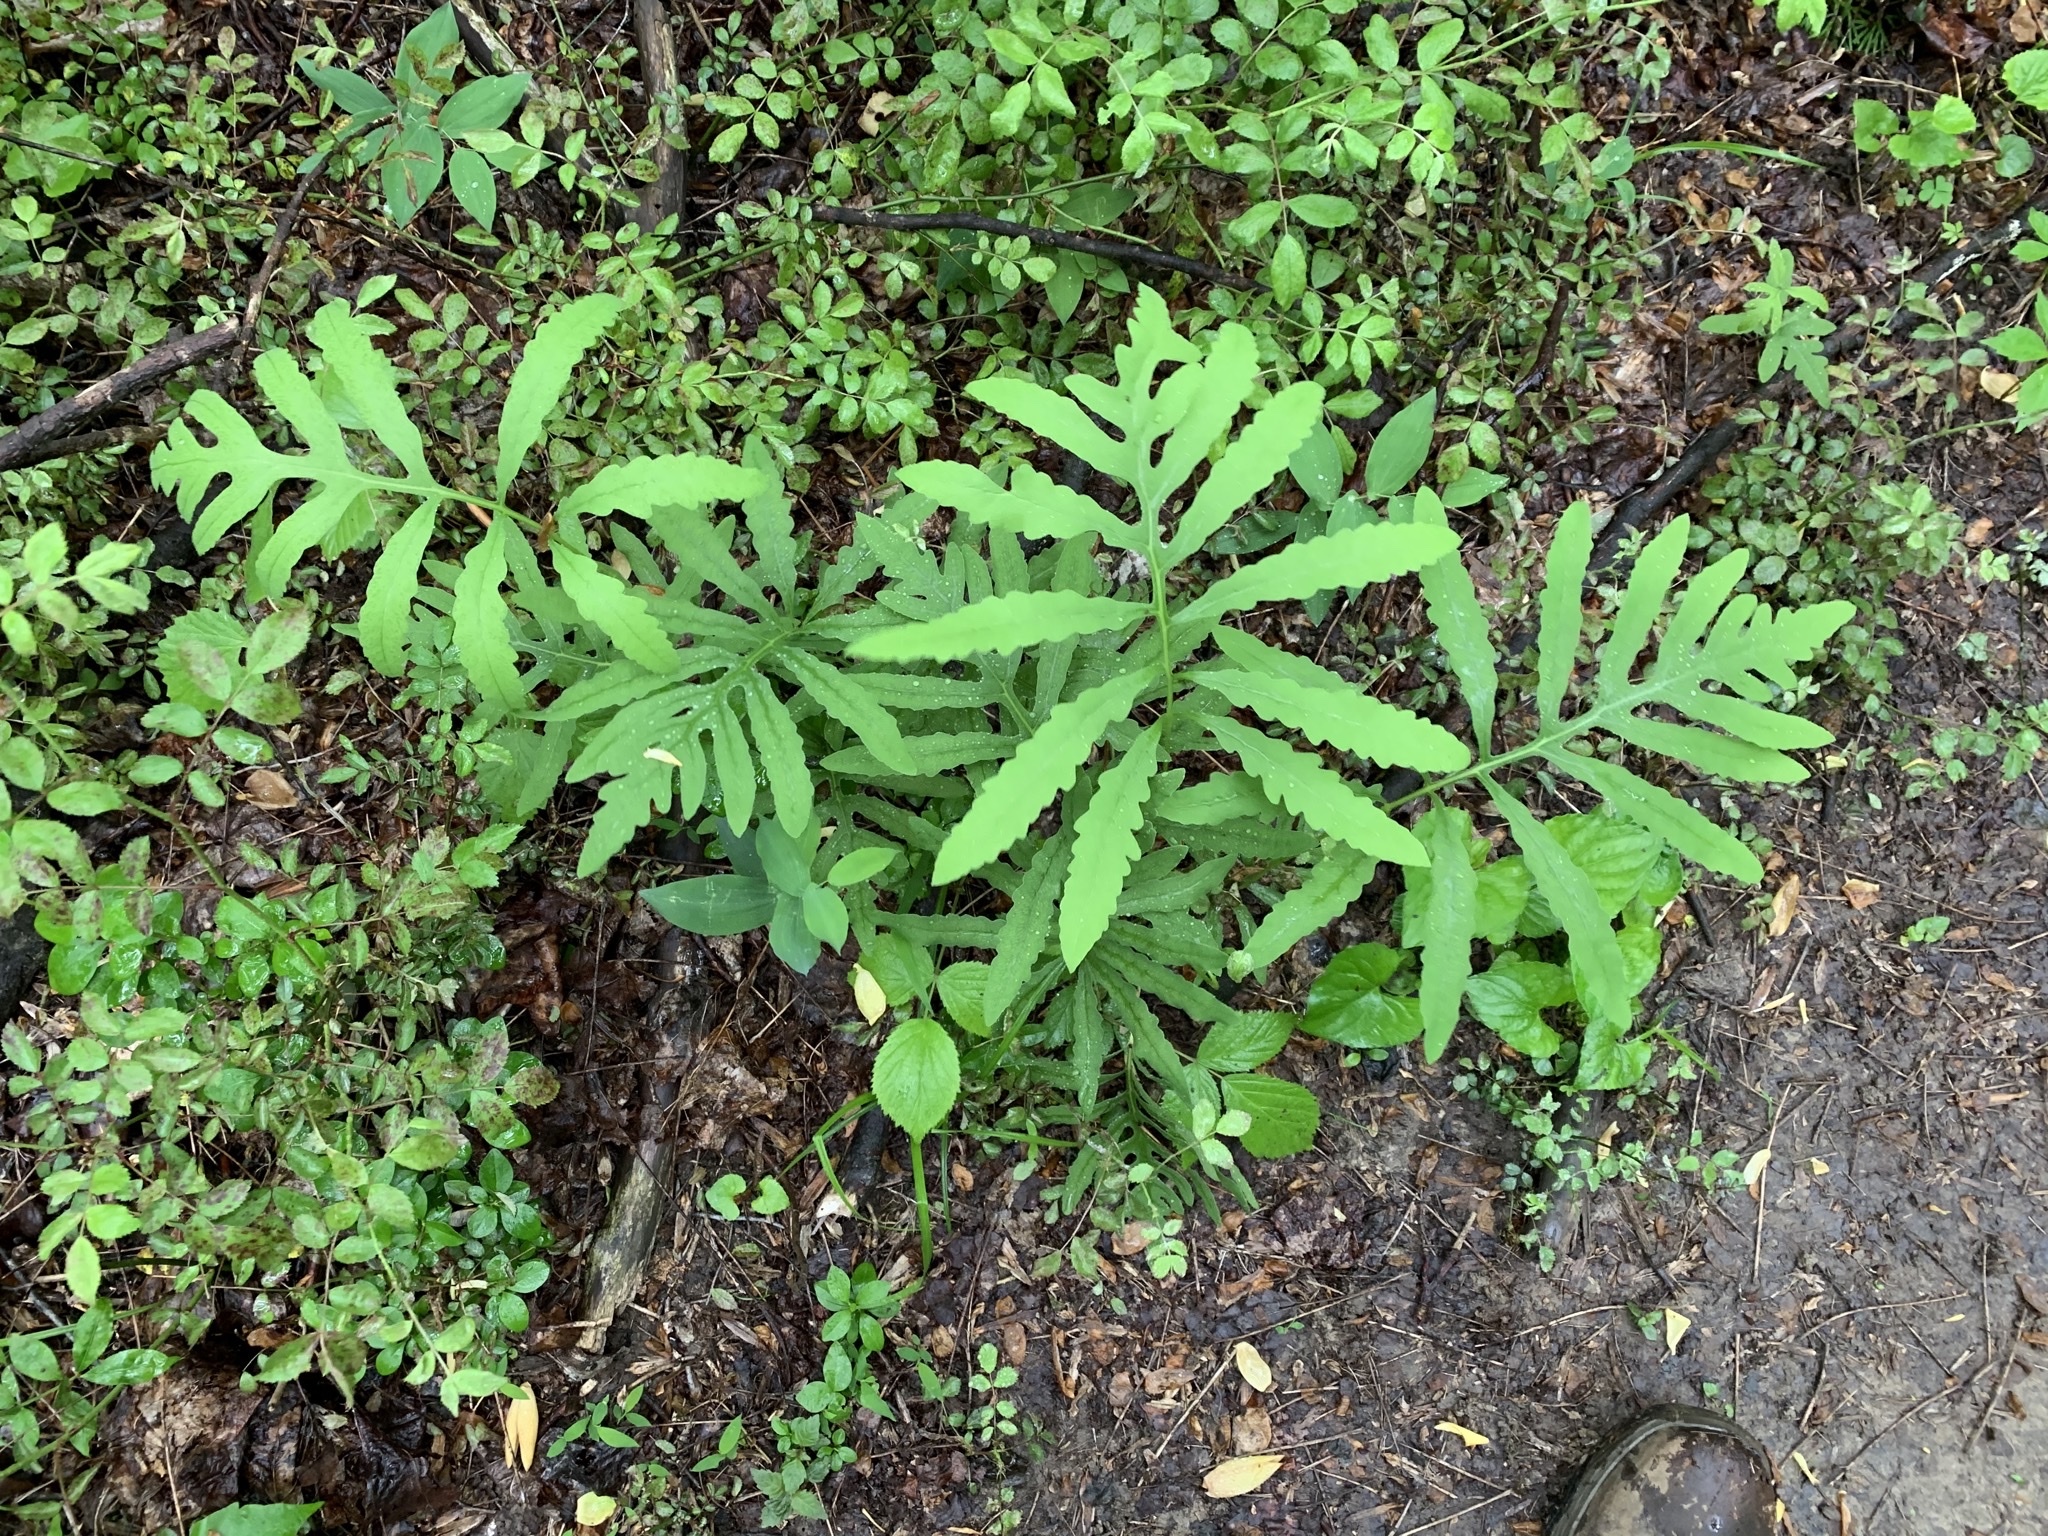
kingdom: Plantae
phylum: Tracheophyta
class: Polypodiopsida
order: Polypodiales
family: Onocleaceae
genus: Onoclea
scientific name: Onoclea sensibilis
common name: Sensitive fern
